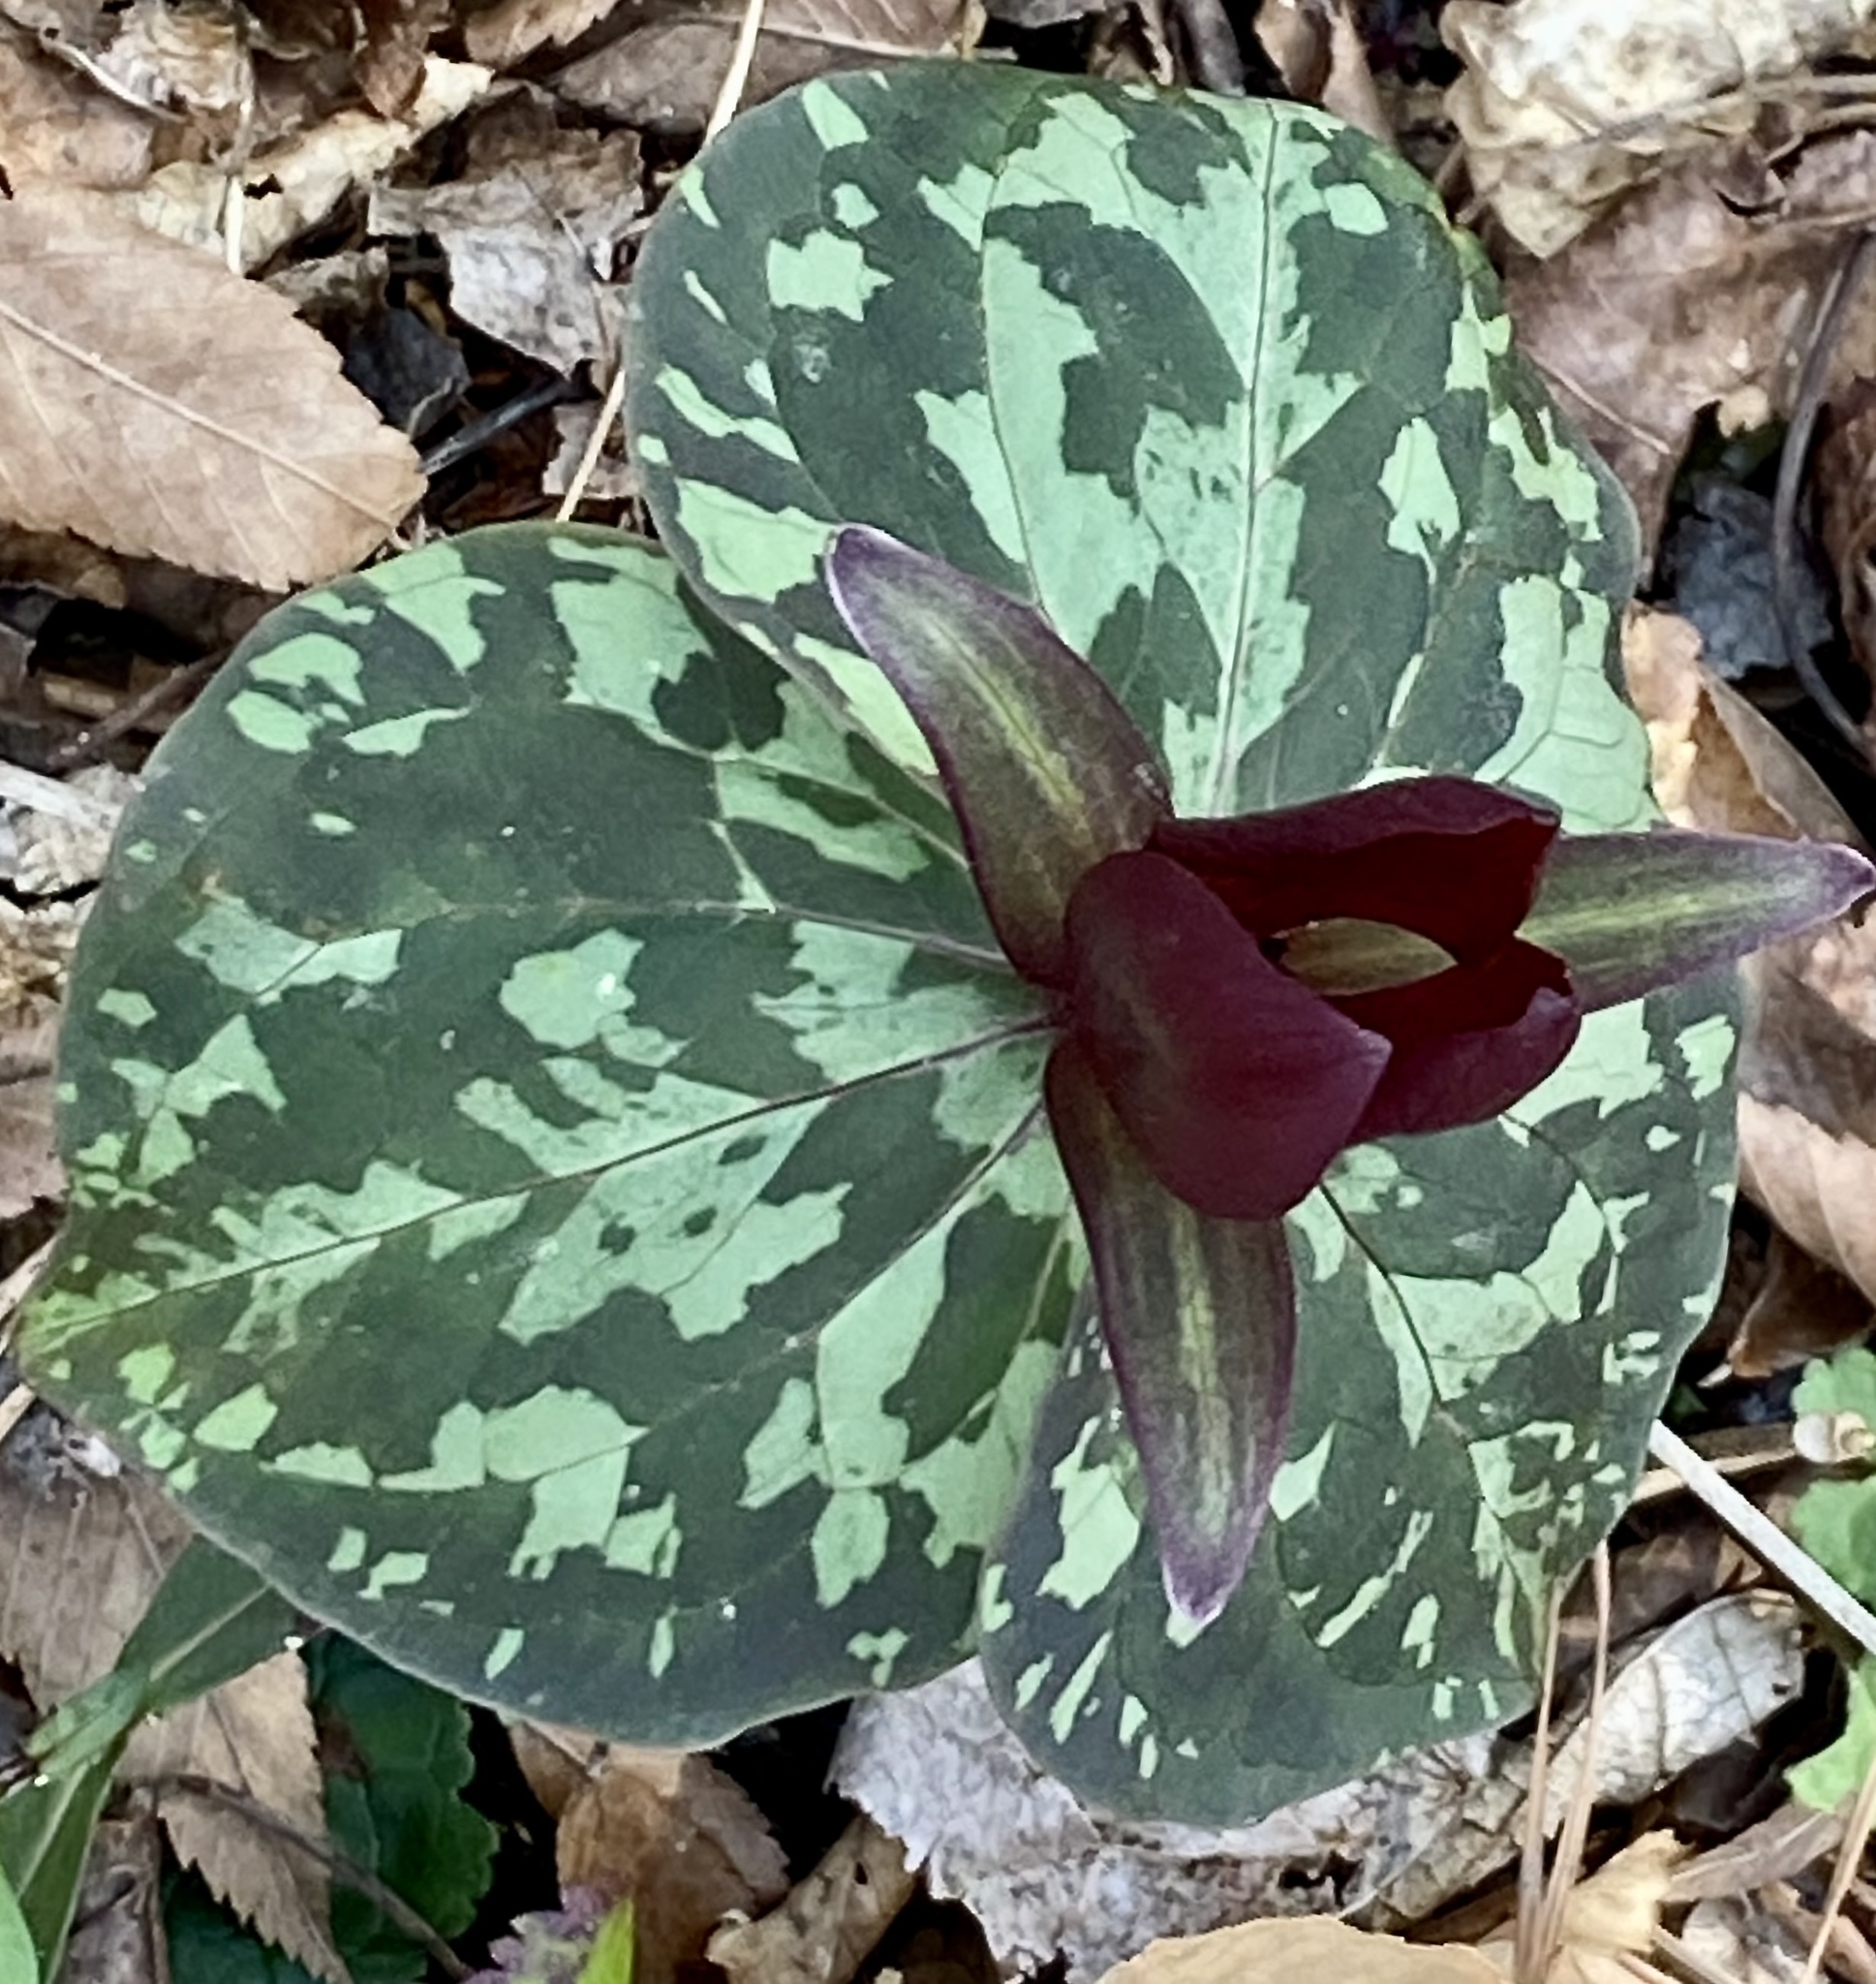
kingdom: Plantae
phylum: Tracheophyta
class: Liliopsida
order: Liliales
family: Melanthiaceae
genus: Trillium
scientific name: Trillium cuneatum
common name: Cuneate trillium
